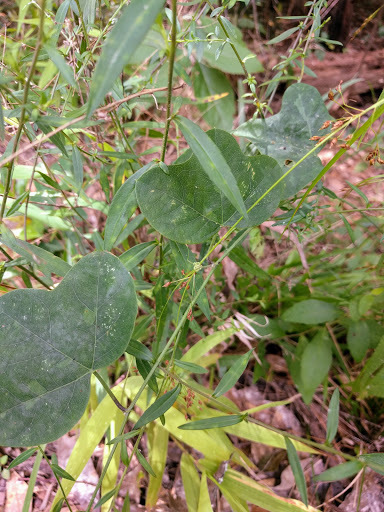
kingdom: Plantae
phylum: Tracheophyta
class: Magnoliopsida
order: Malpighiales
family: Passifloraceae
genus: Passiflora
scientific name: Passiflora lutea
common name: Yellow passionflower
